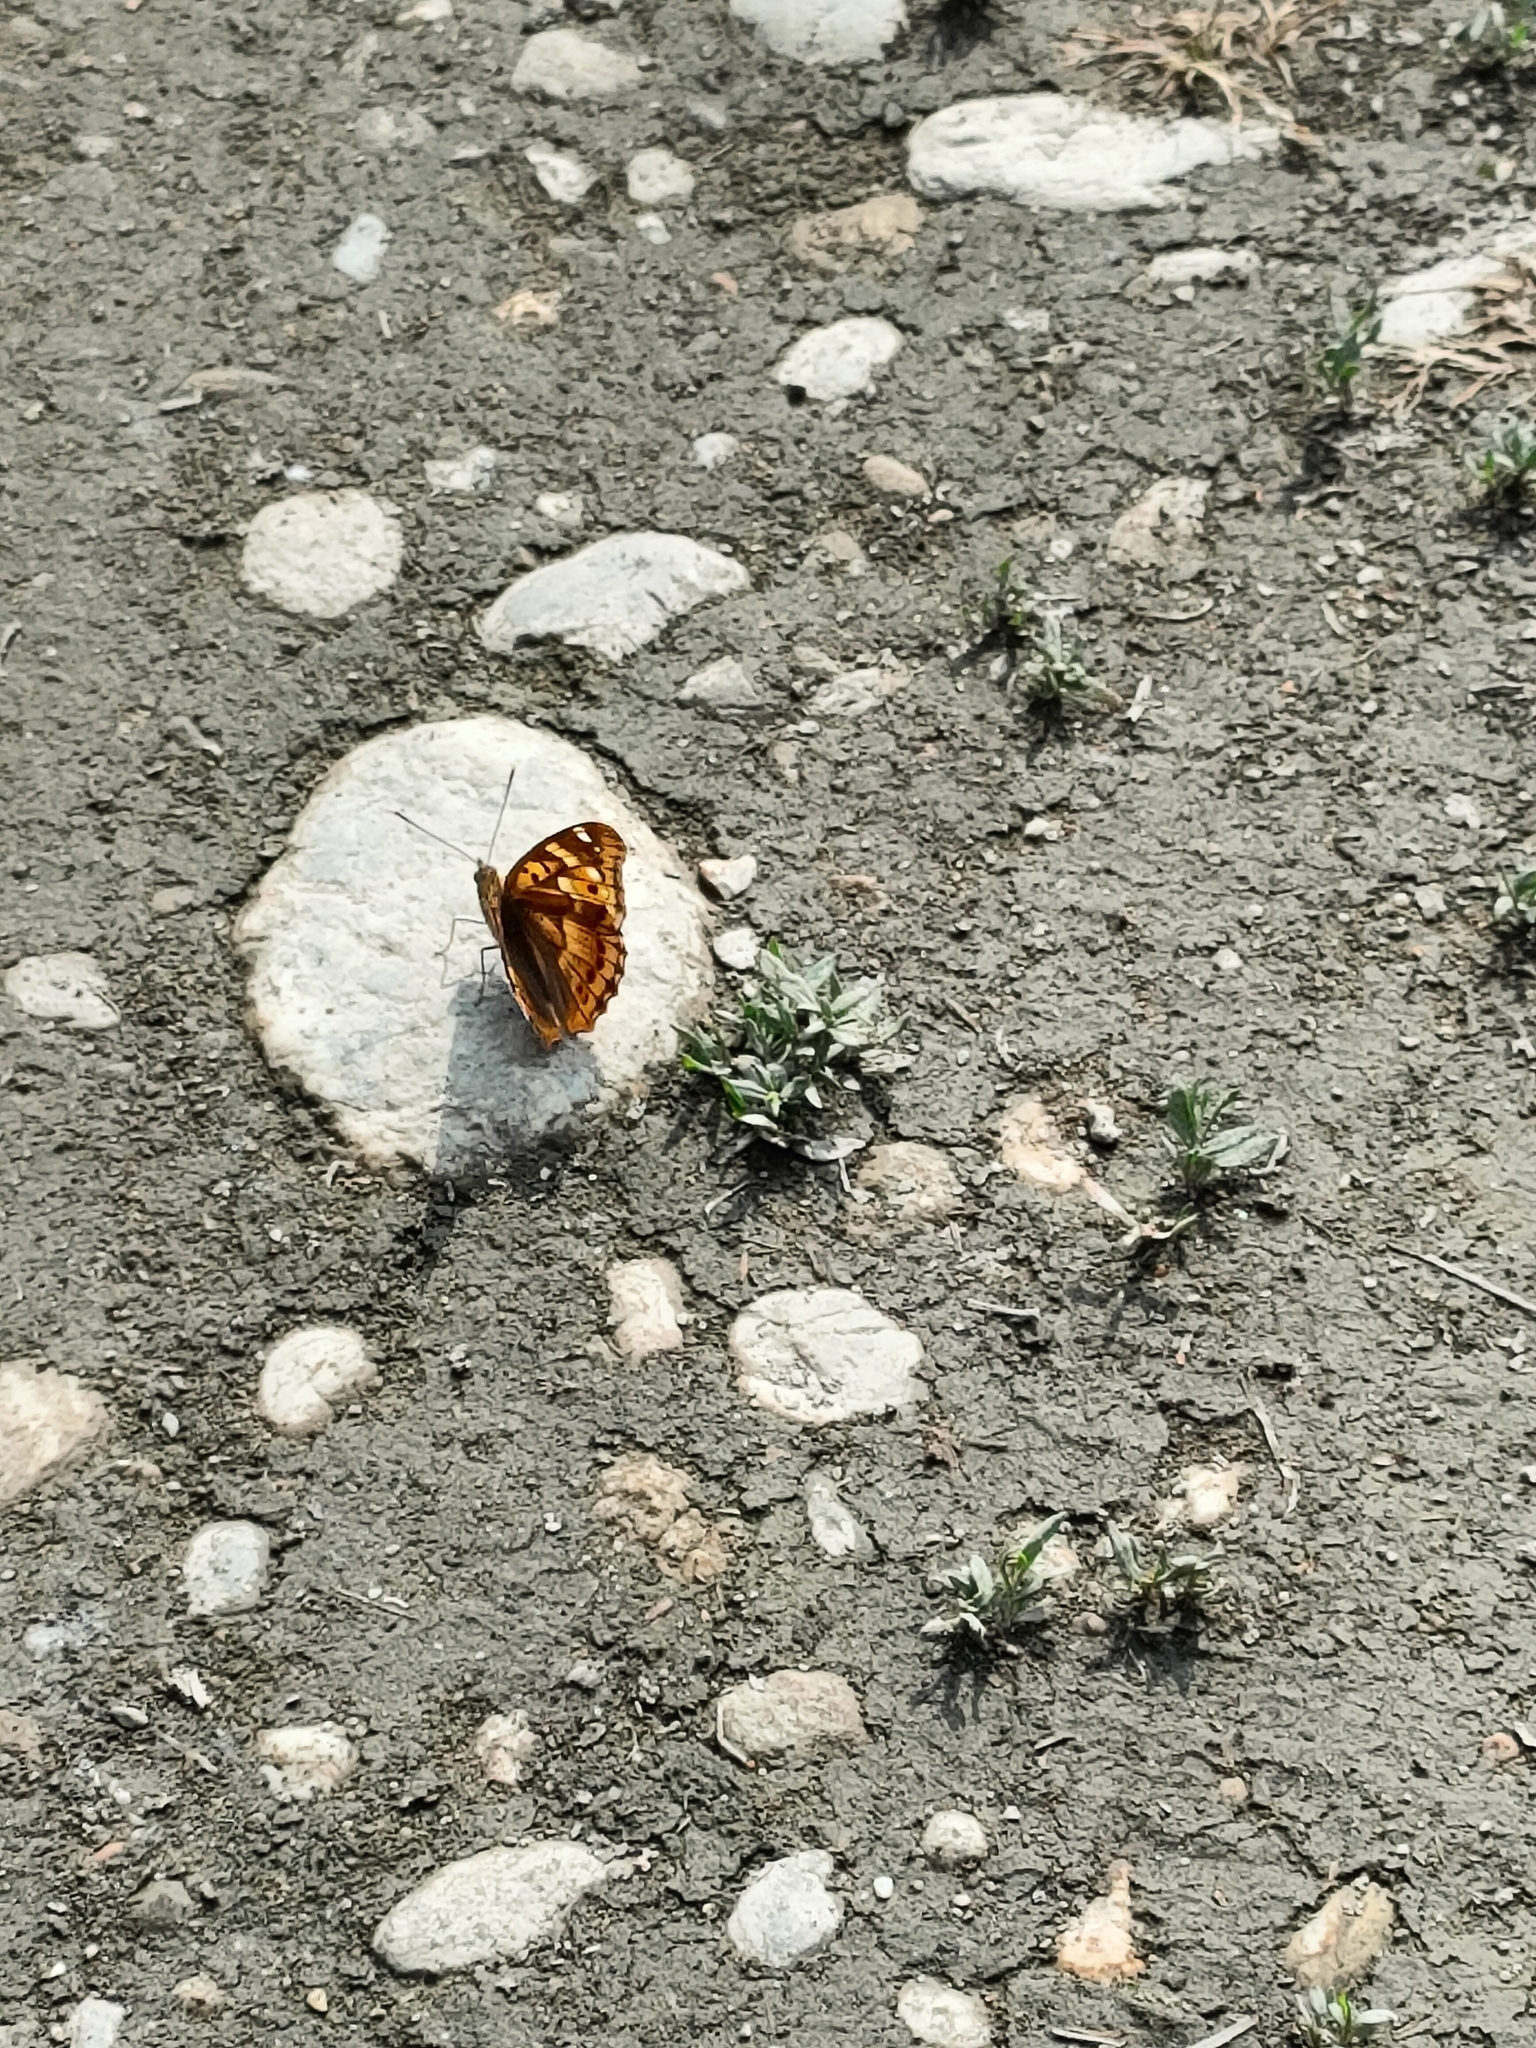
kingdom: Animalia
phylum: Arthropoda
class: Insecta
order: Lepidoptera
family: Nymphalidae
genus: Apatura
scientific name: Apatura ilia
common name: Lesser purple emperor
